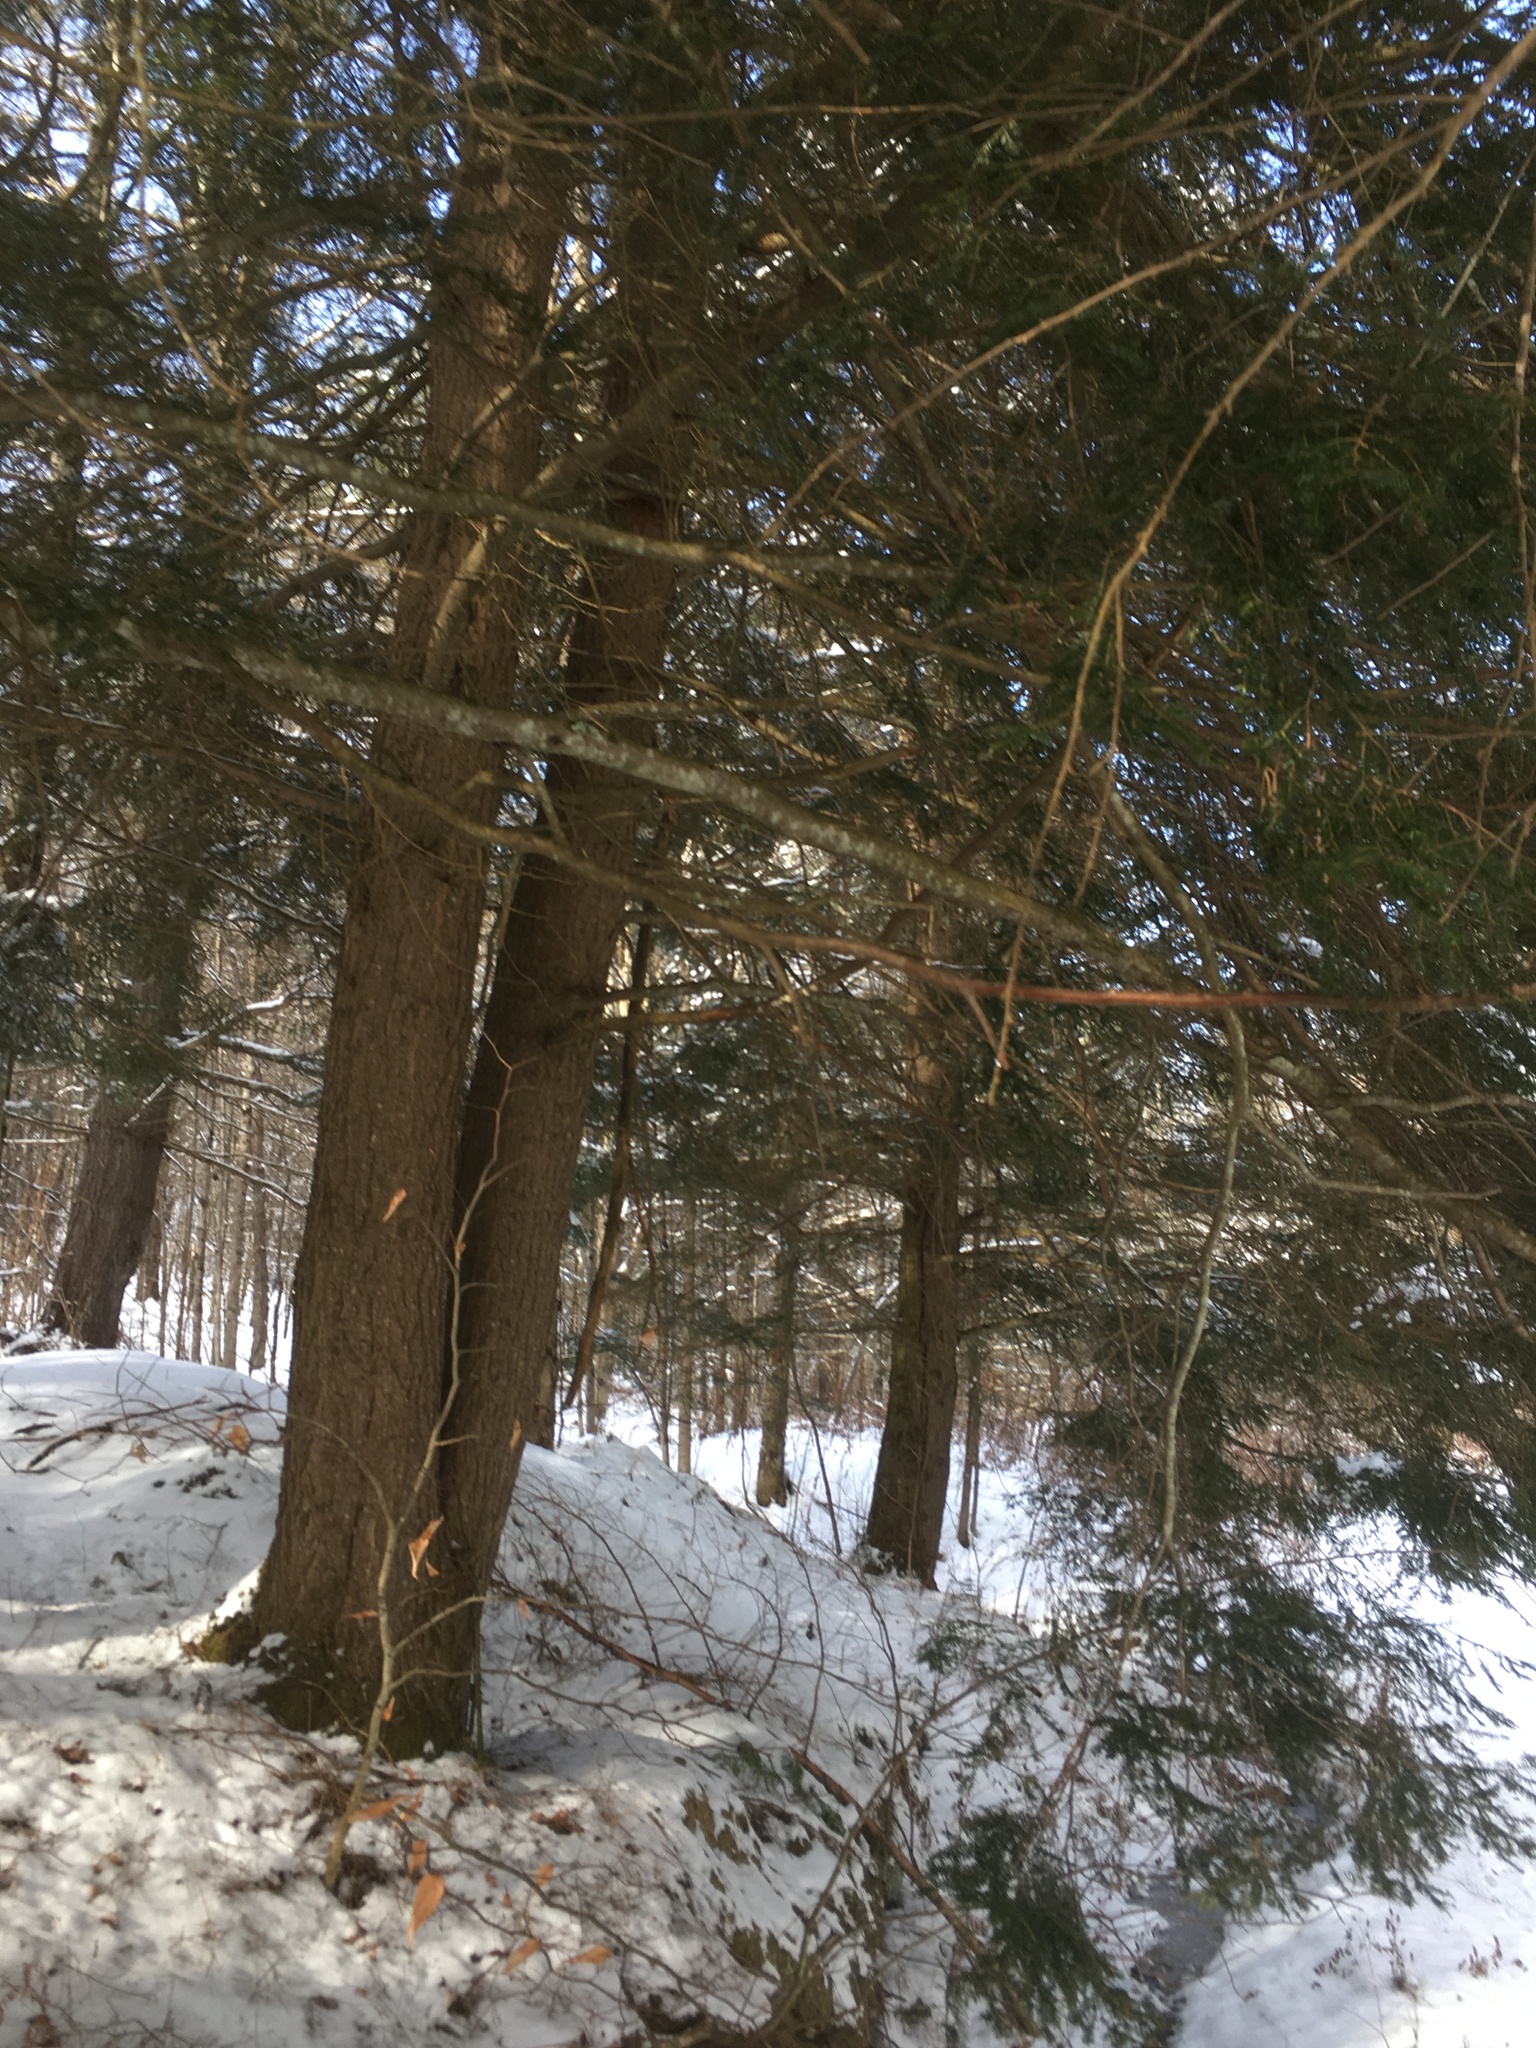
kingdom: Plantae
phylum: Tracheophyta
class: Pinopsida
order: Pinales
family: Pinaceae
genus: Tsuga
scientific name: Tsuga canadensis
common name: Eastern hemlock
